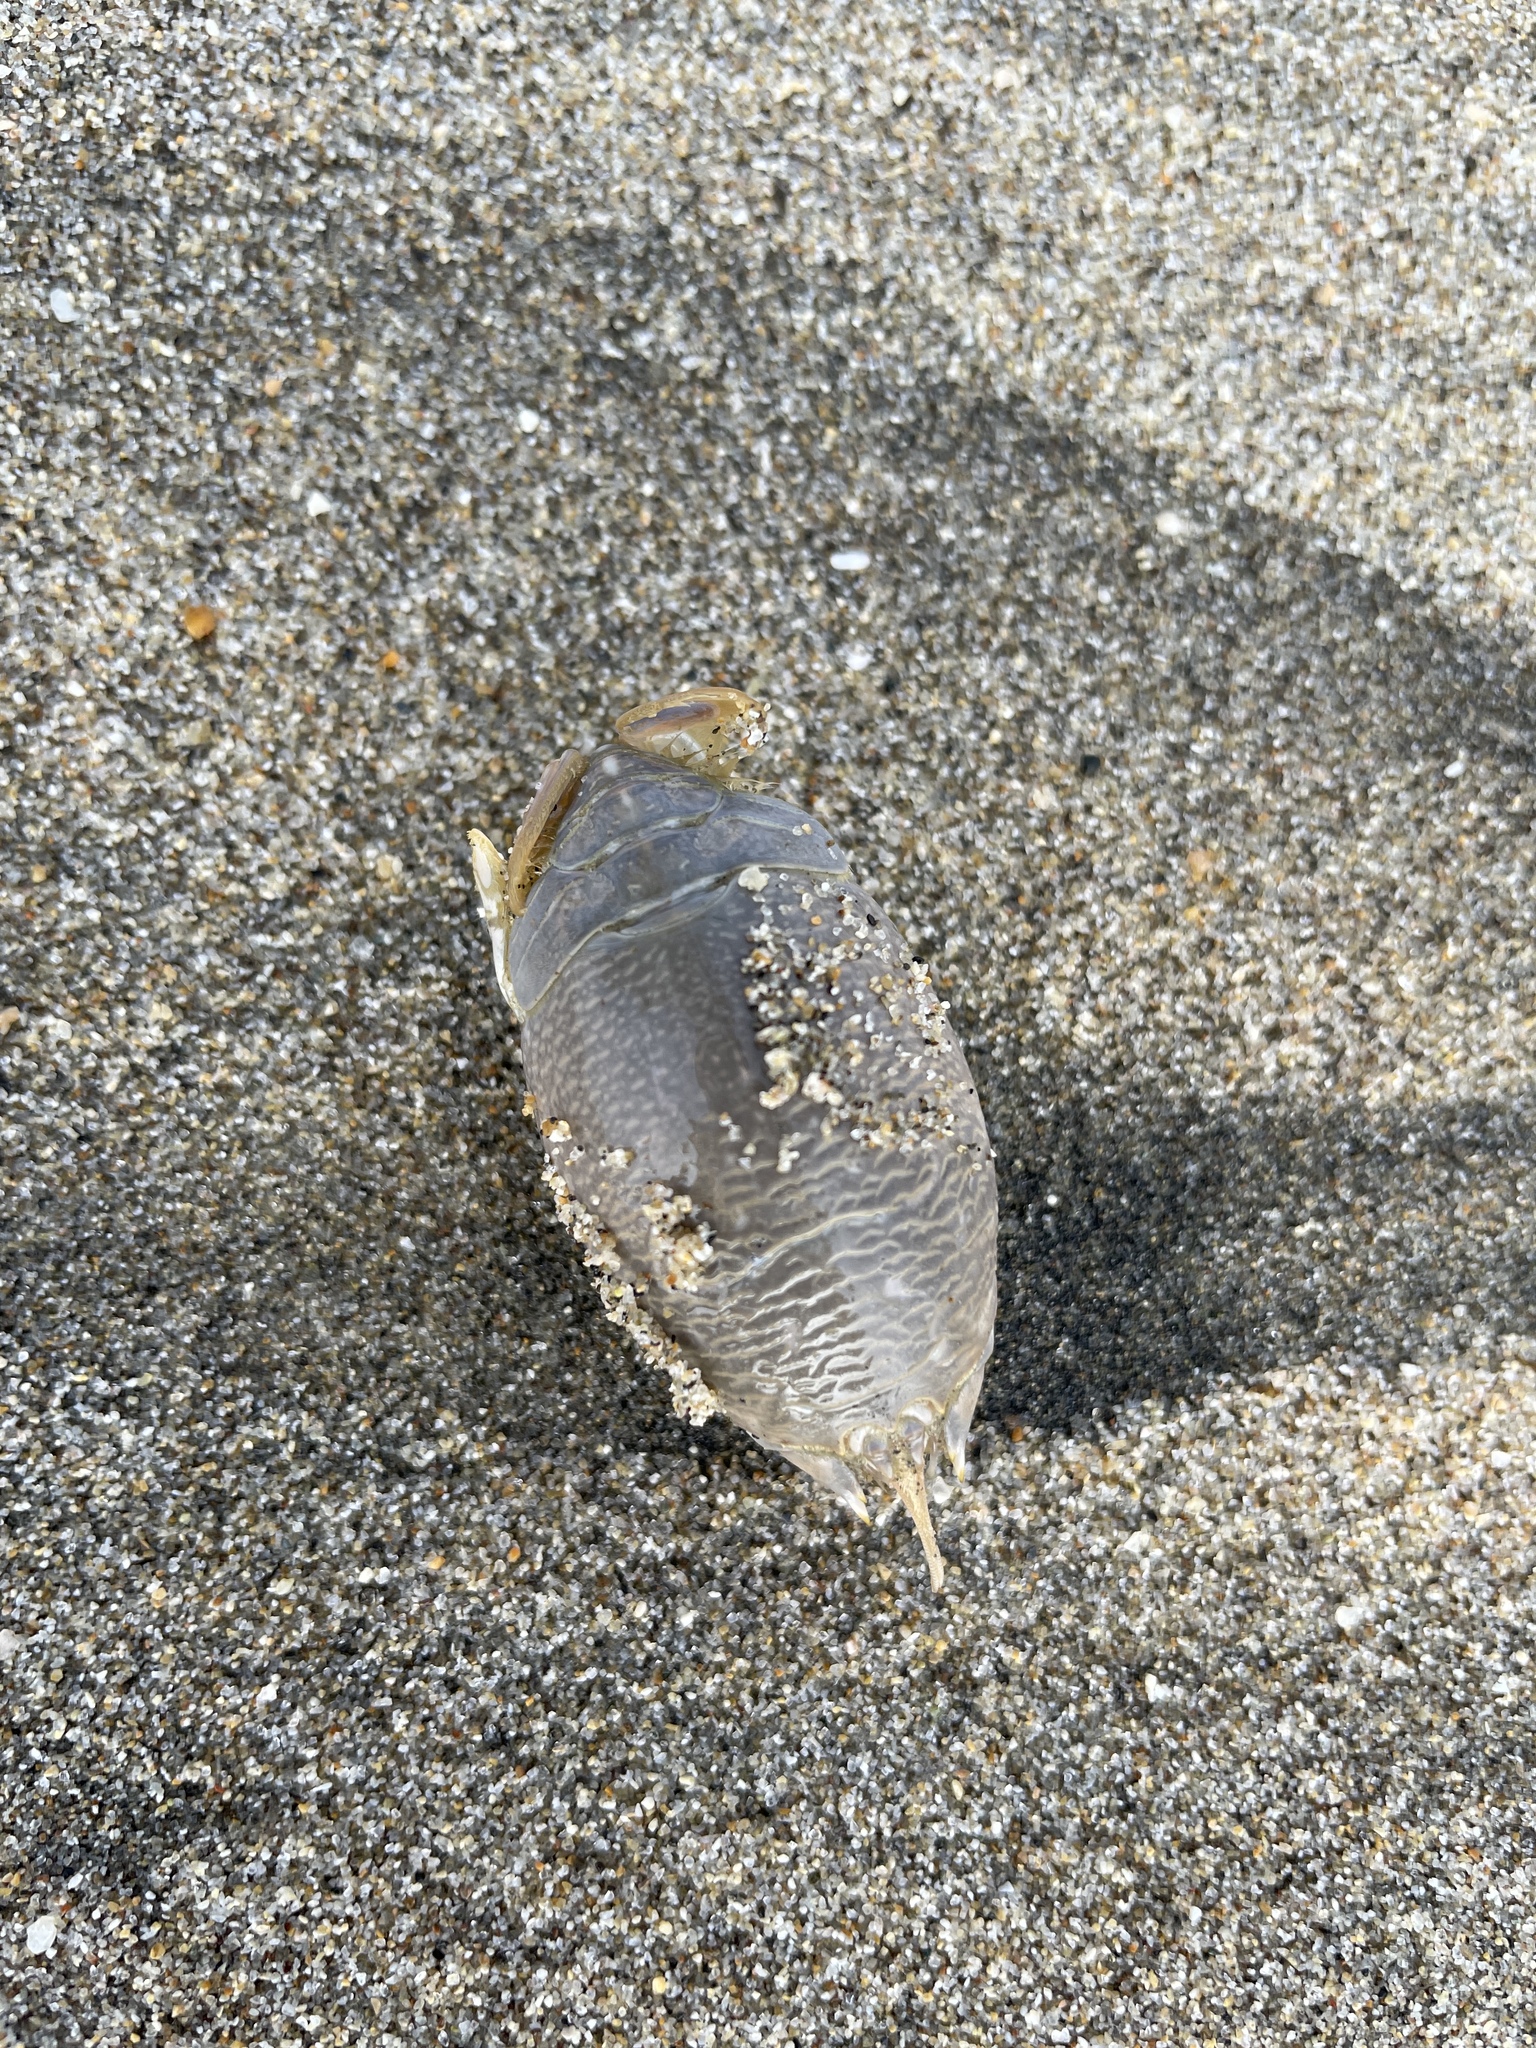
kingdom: Animalia
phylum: Arthropoda
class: Malacostraca
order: Decapoda
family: Hippidae
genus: Emerita
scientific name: Emerita analoga
